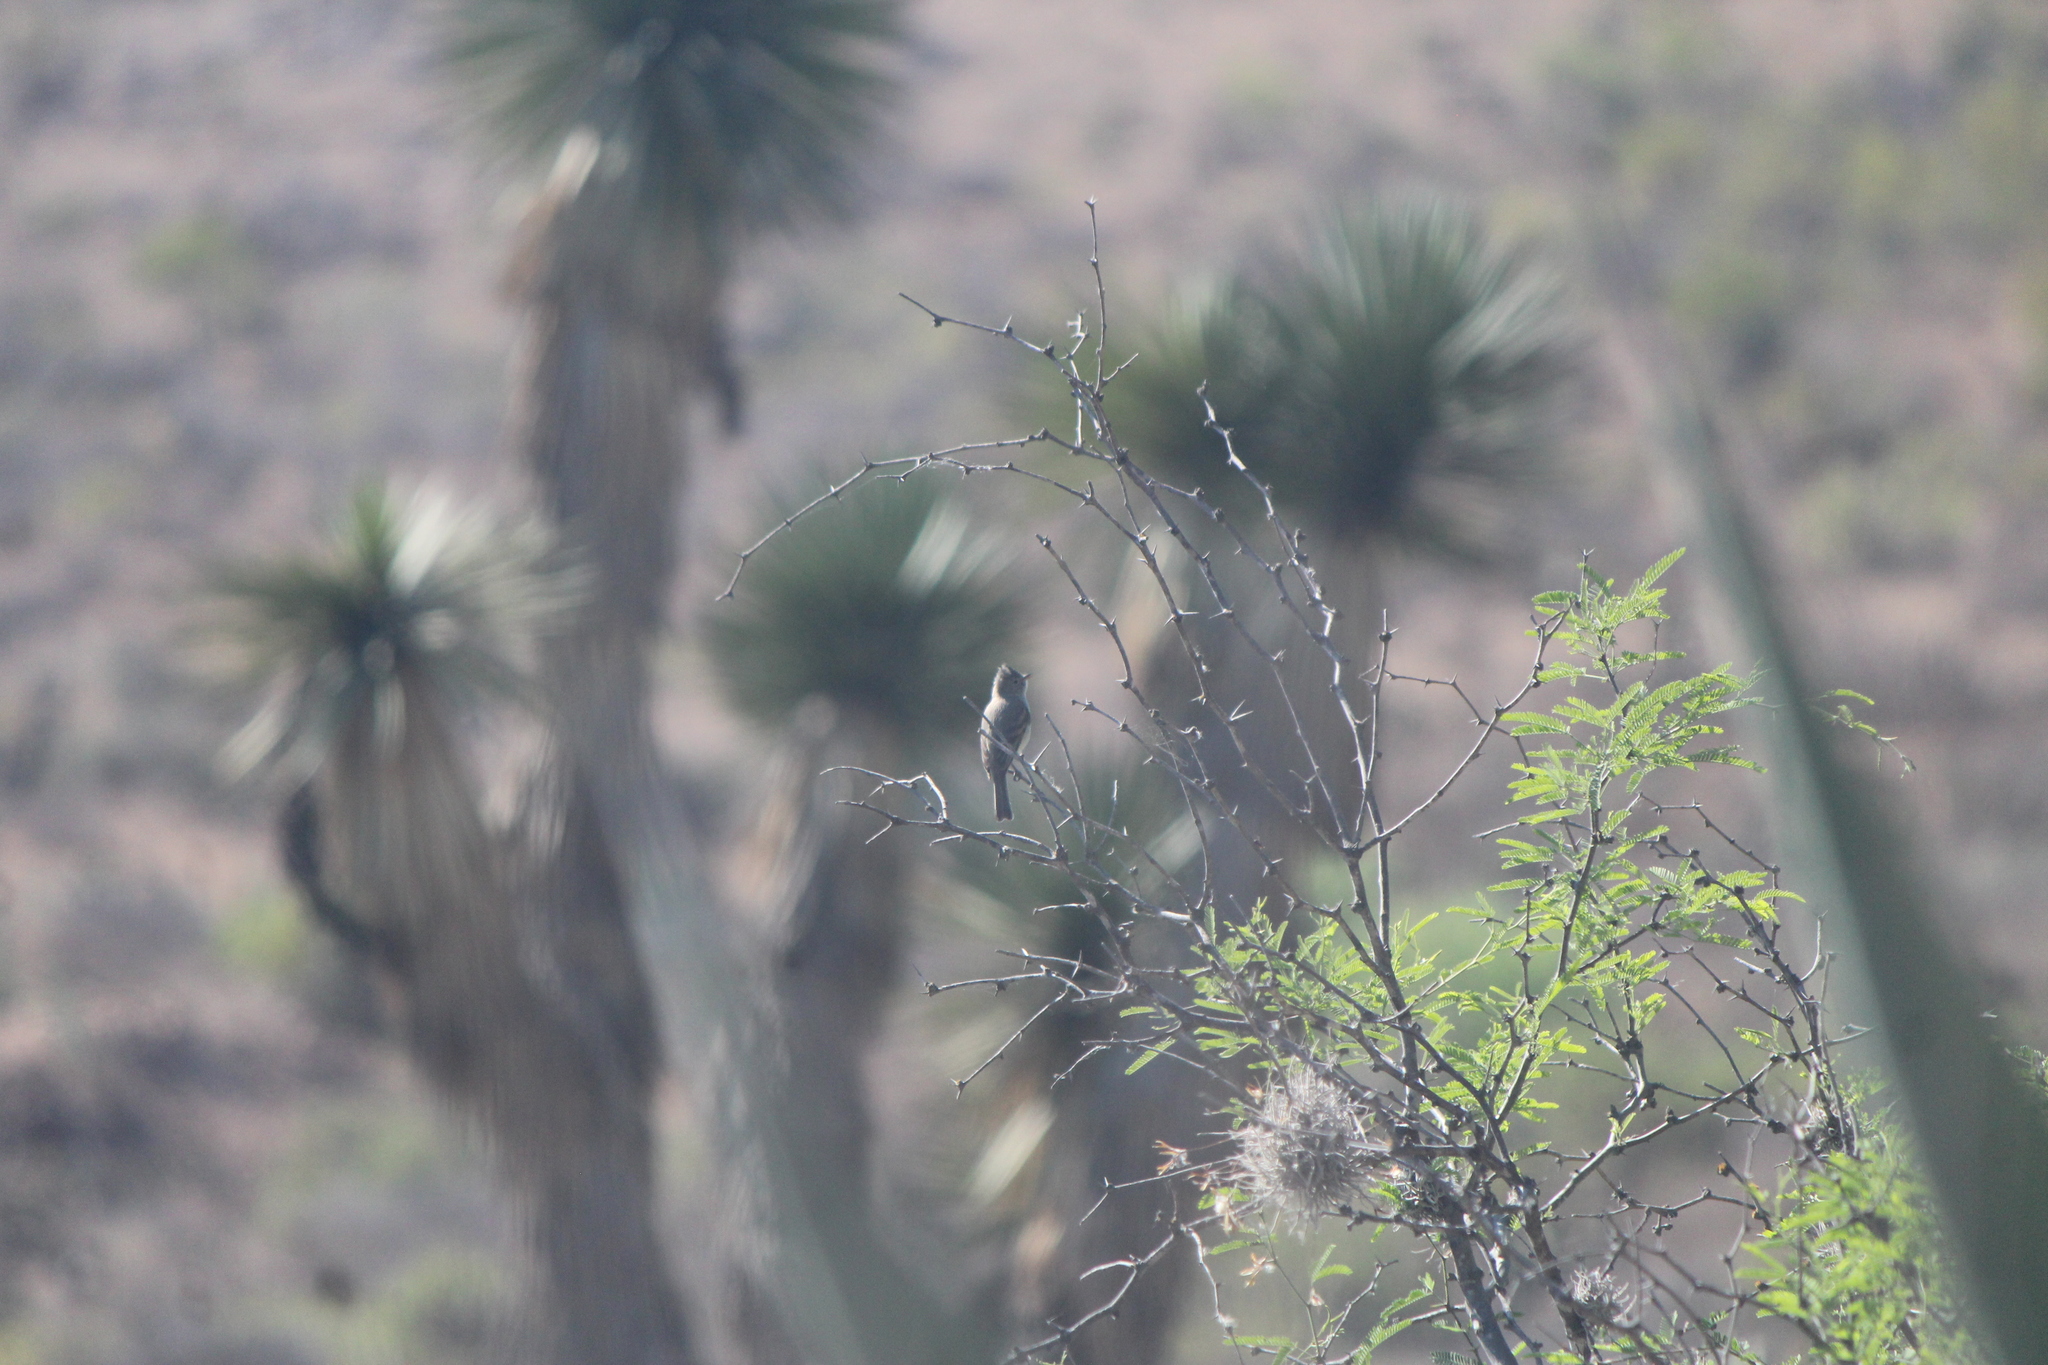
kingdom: Animalia
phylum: Chordata
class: Aves
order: Passeriformes
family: Tyrannidae
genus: Camptostoma
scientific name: Camptostoma imberbe
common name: Northern beardless-tyrannulet
